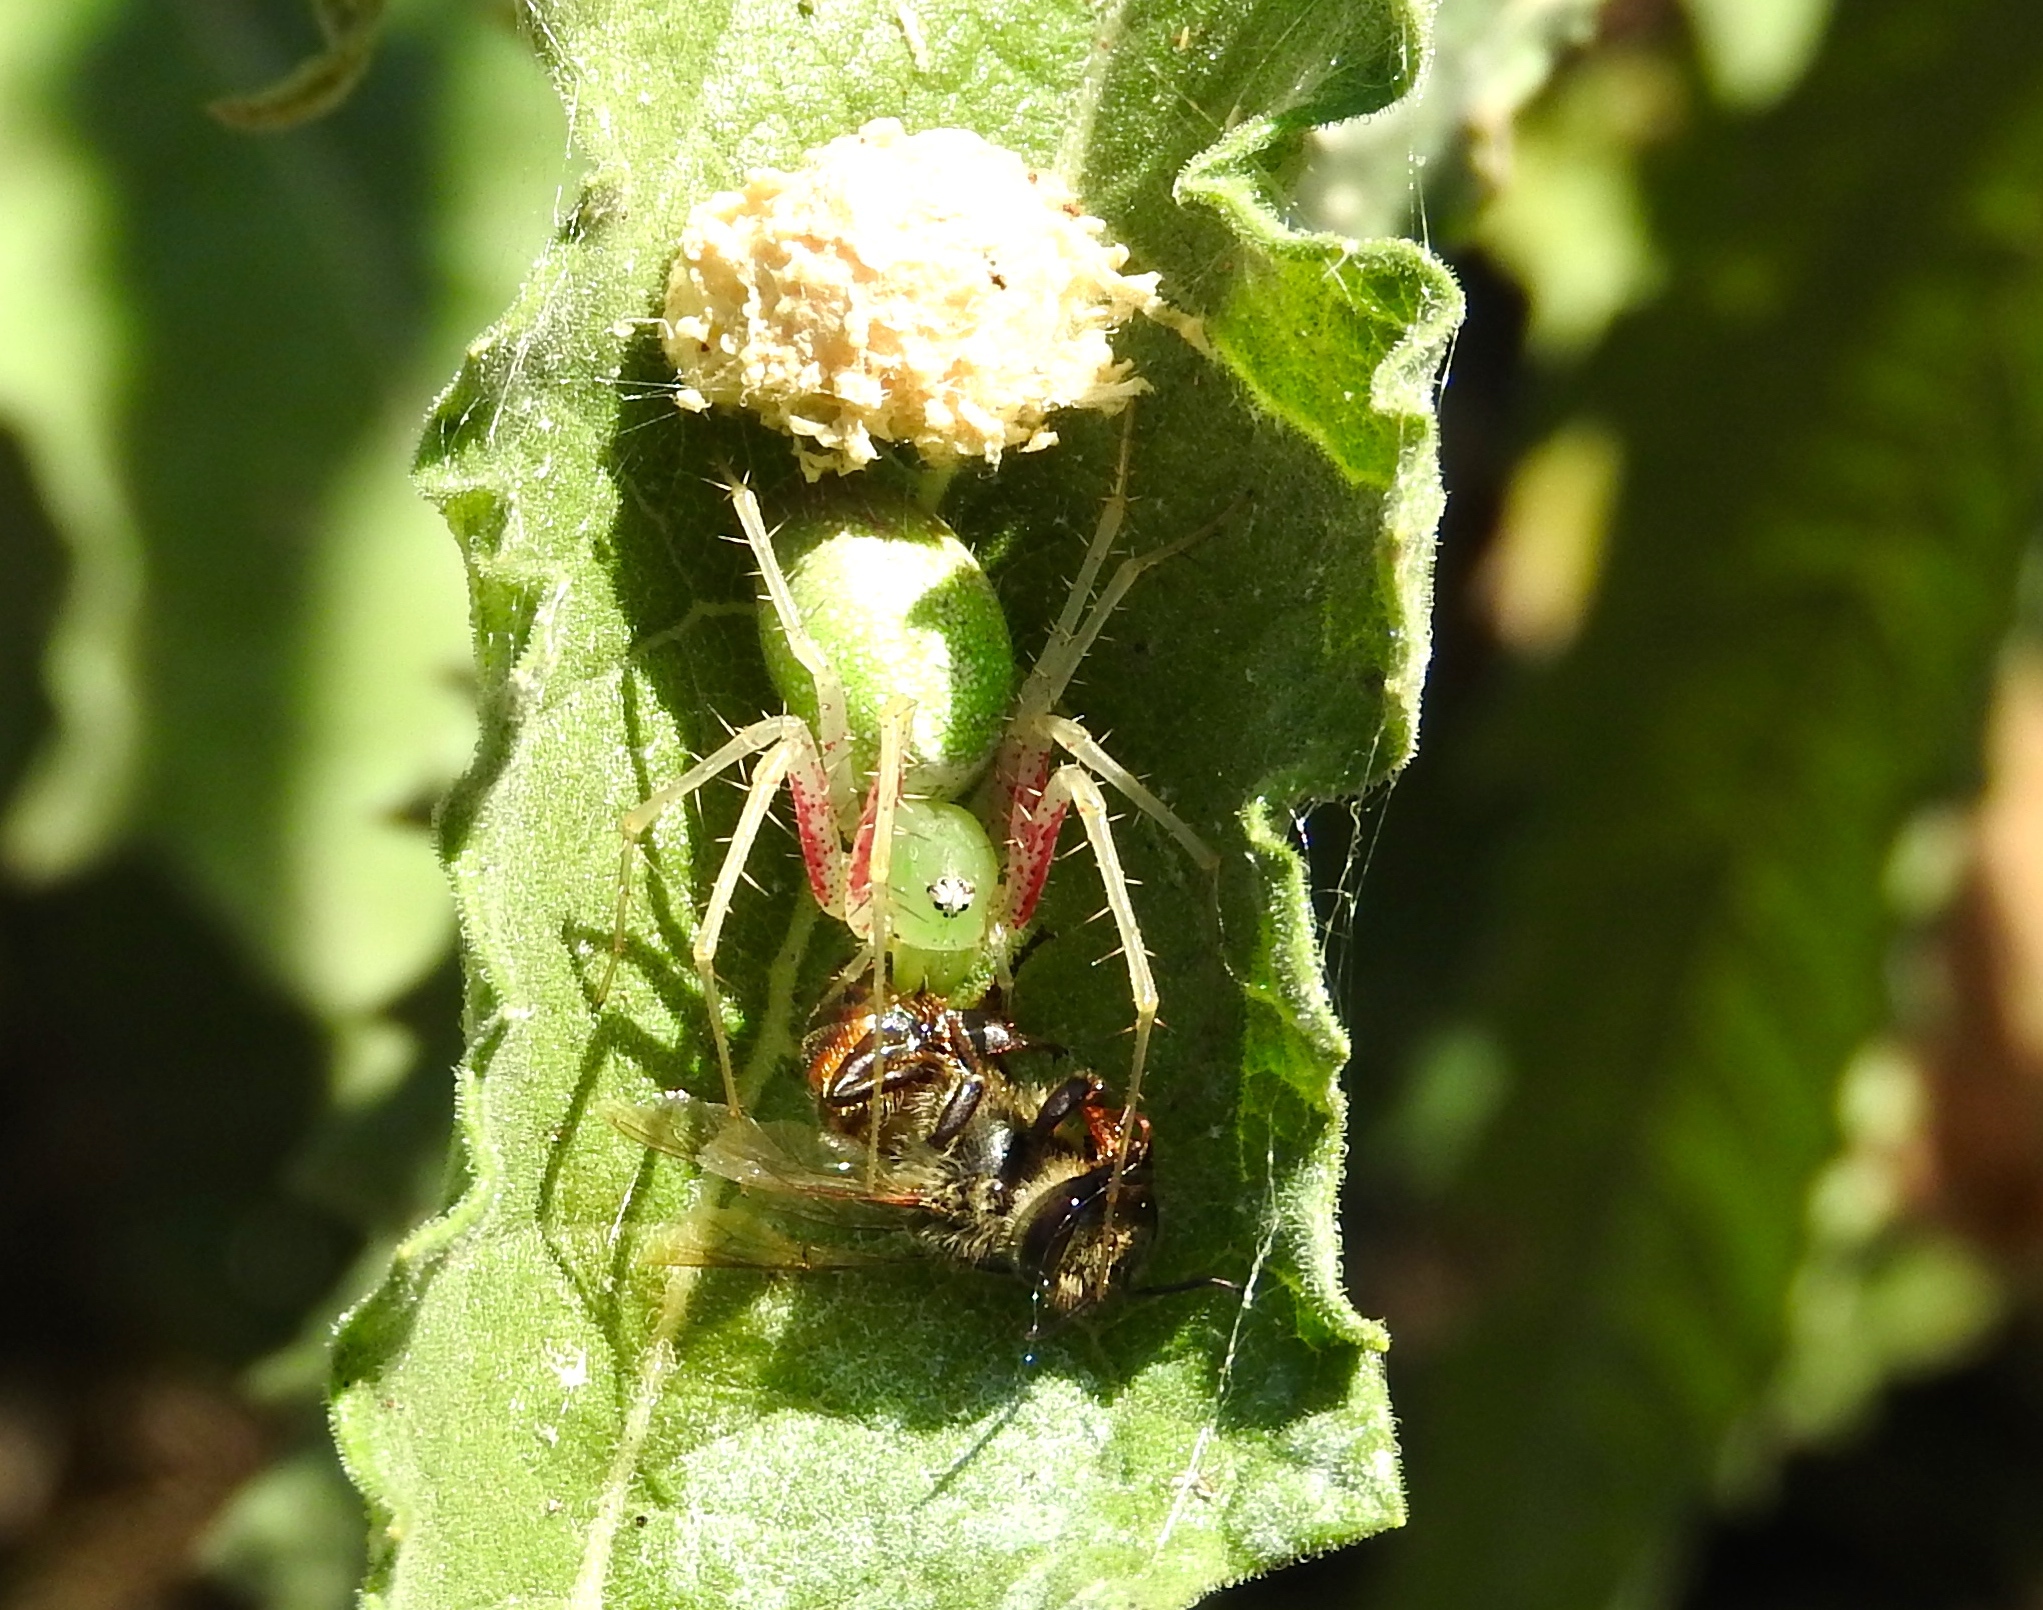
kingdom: Animalia
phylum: Arthropoda
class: Arachnida
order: Araneae
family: Oxyopidae
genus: Peucetia
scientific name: Peucetia longipalpis
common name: Lynx spiders
